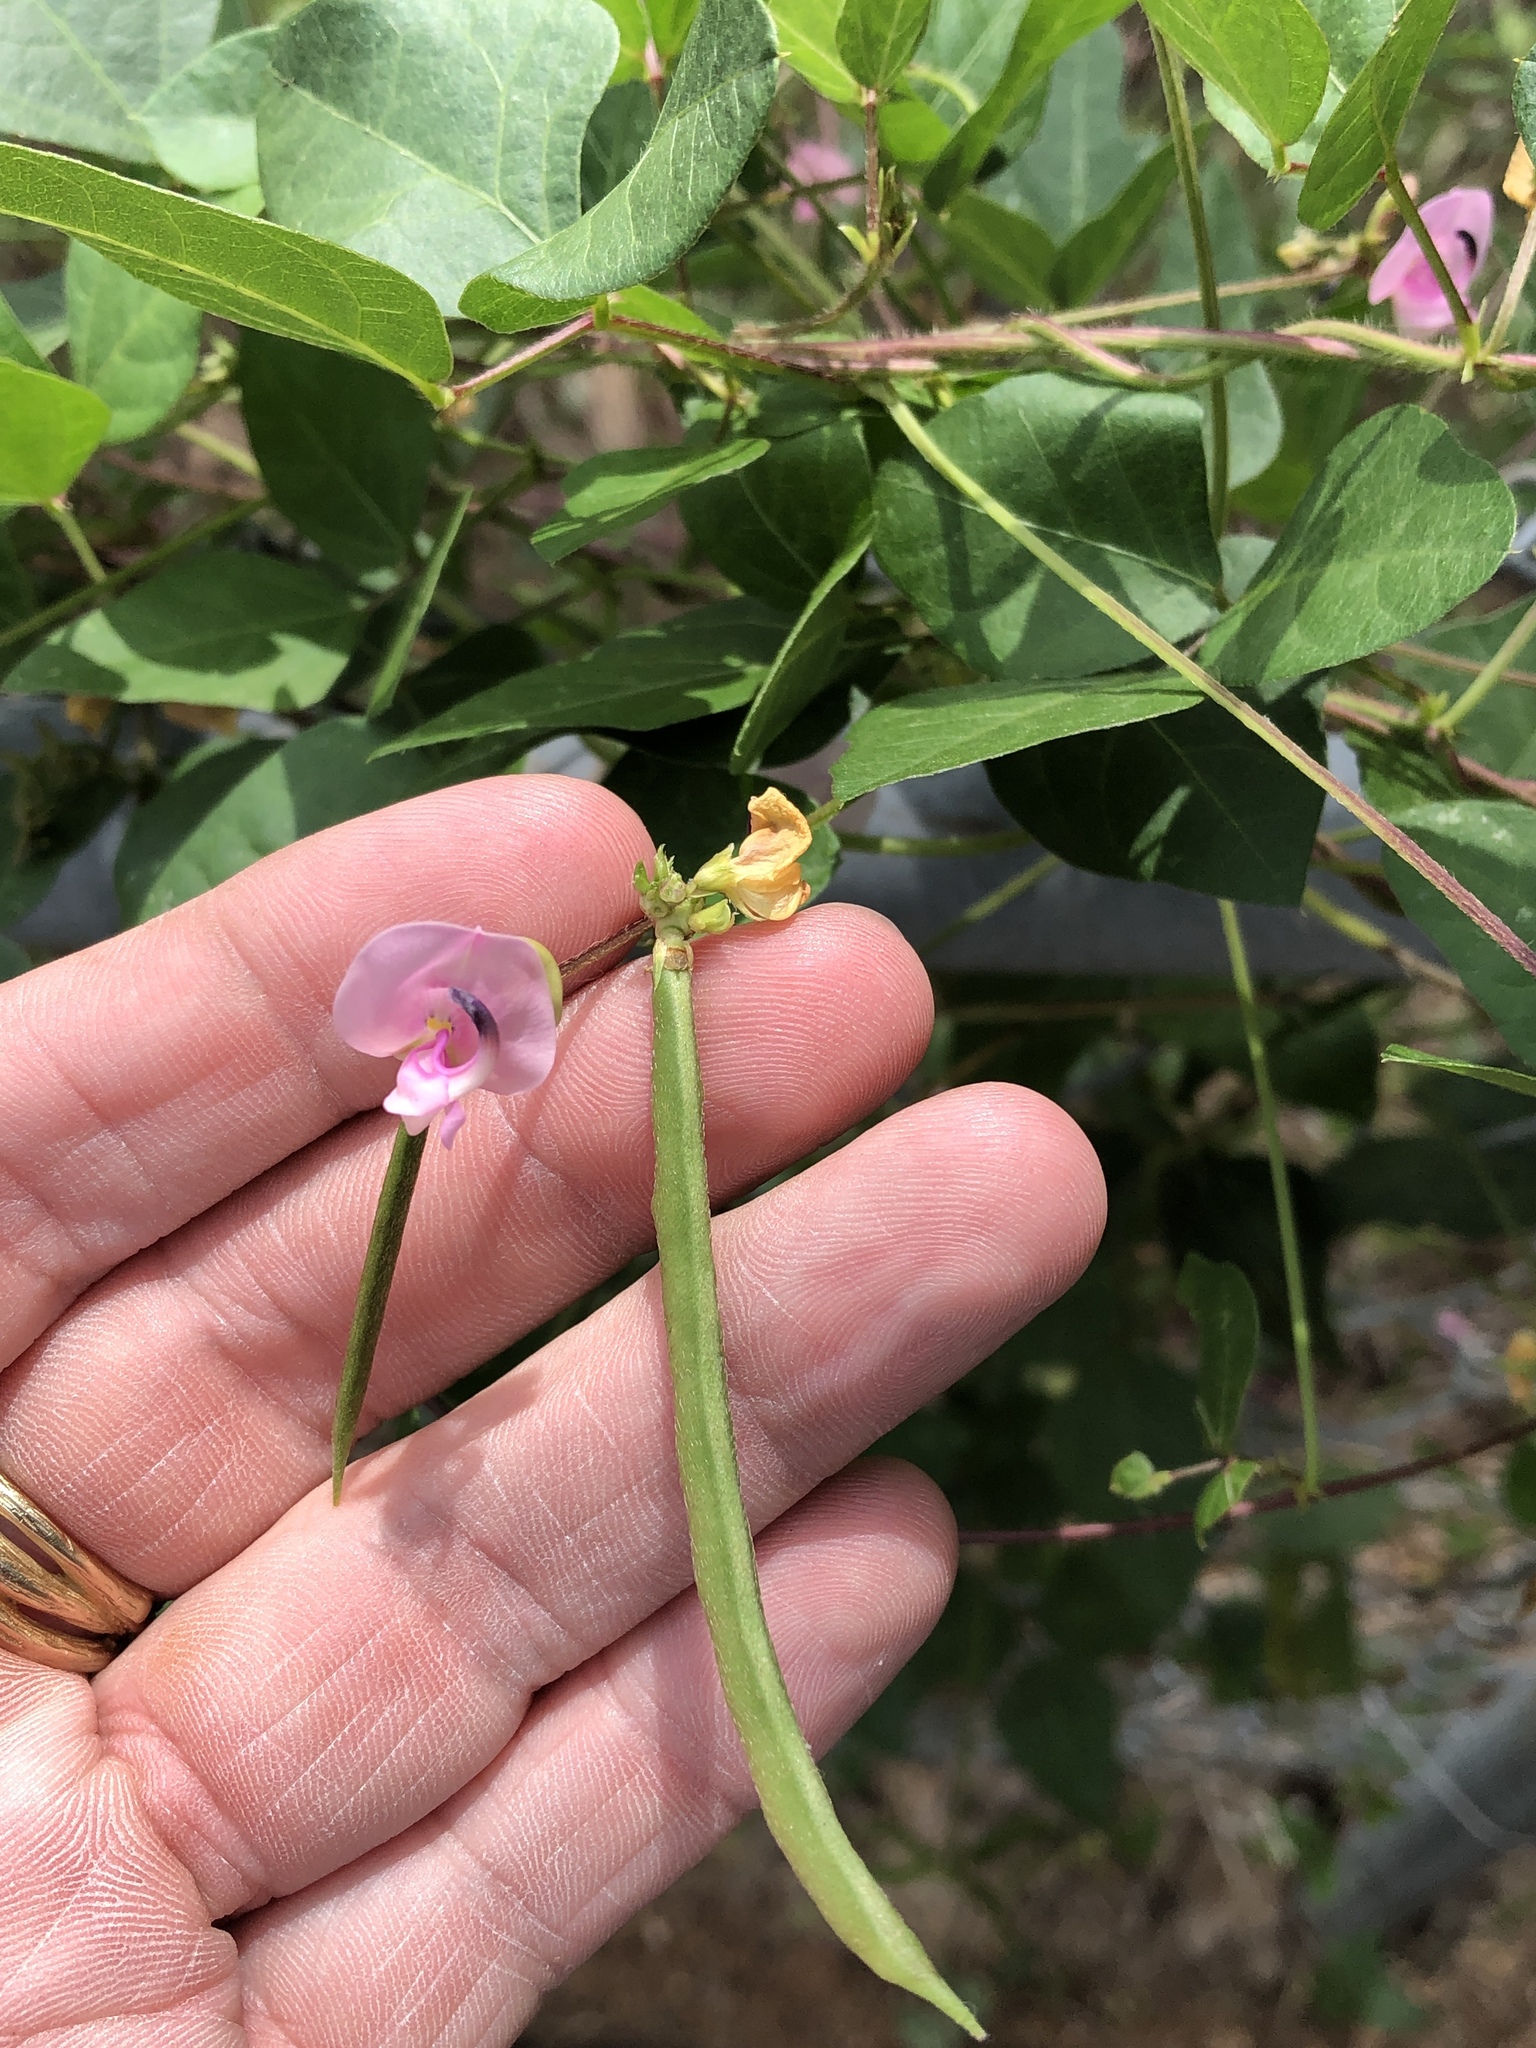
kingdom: Plantae
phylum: Tracheophyta
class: Magnoliopsida
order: Fabales
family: Fabaceae
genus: Strophostyles
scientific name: Strophostyles helvola
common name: Trailing wild bean
